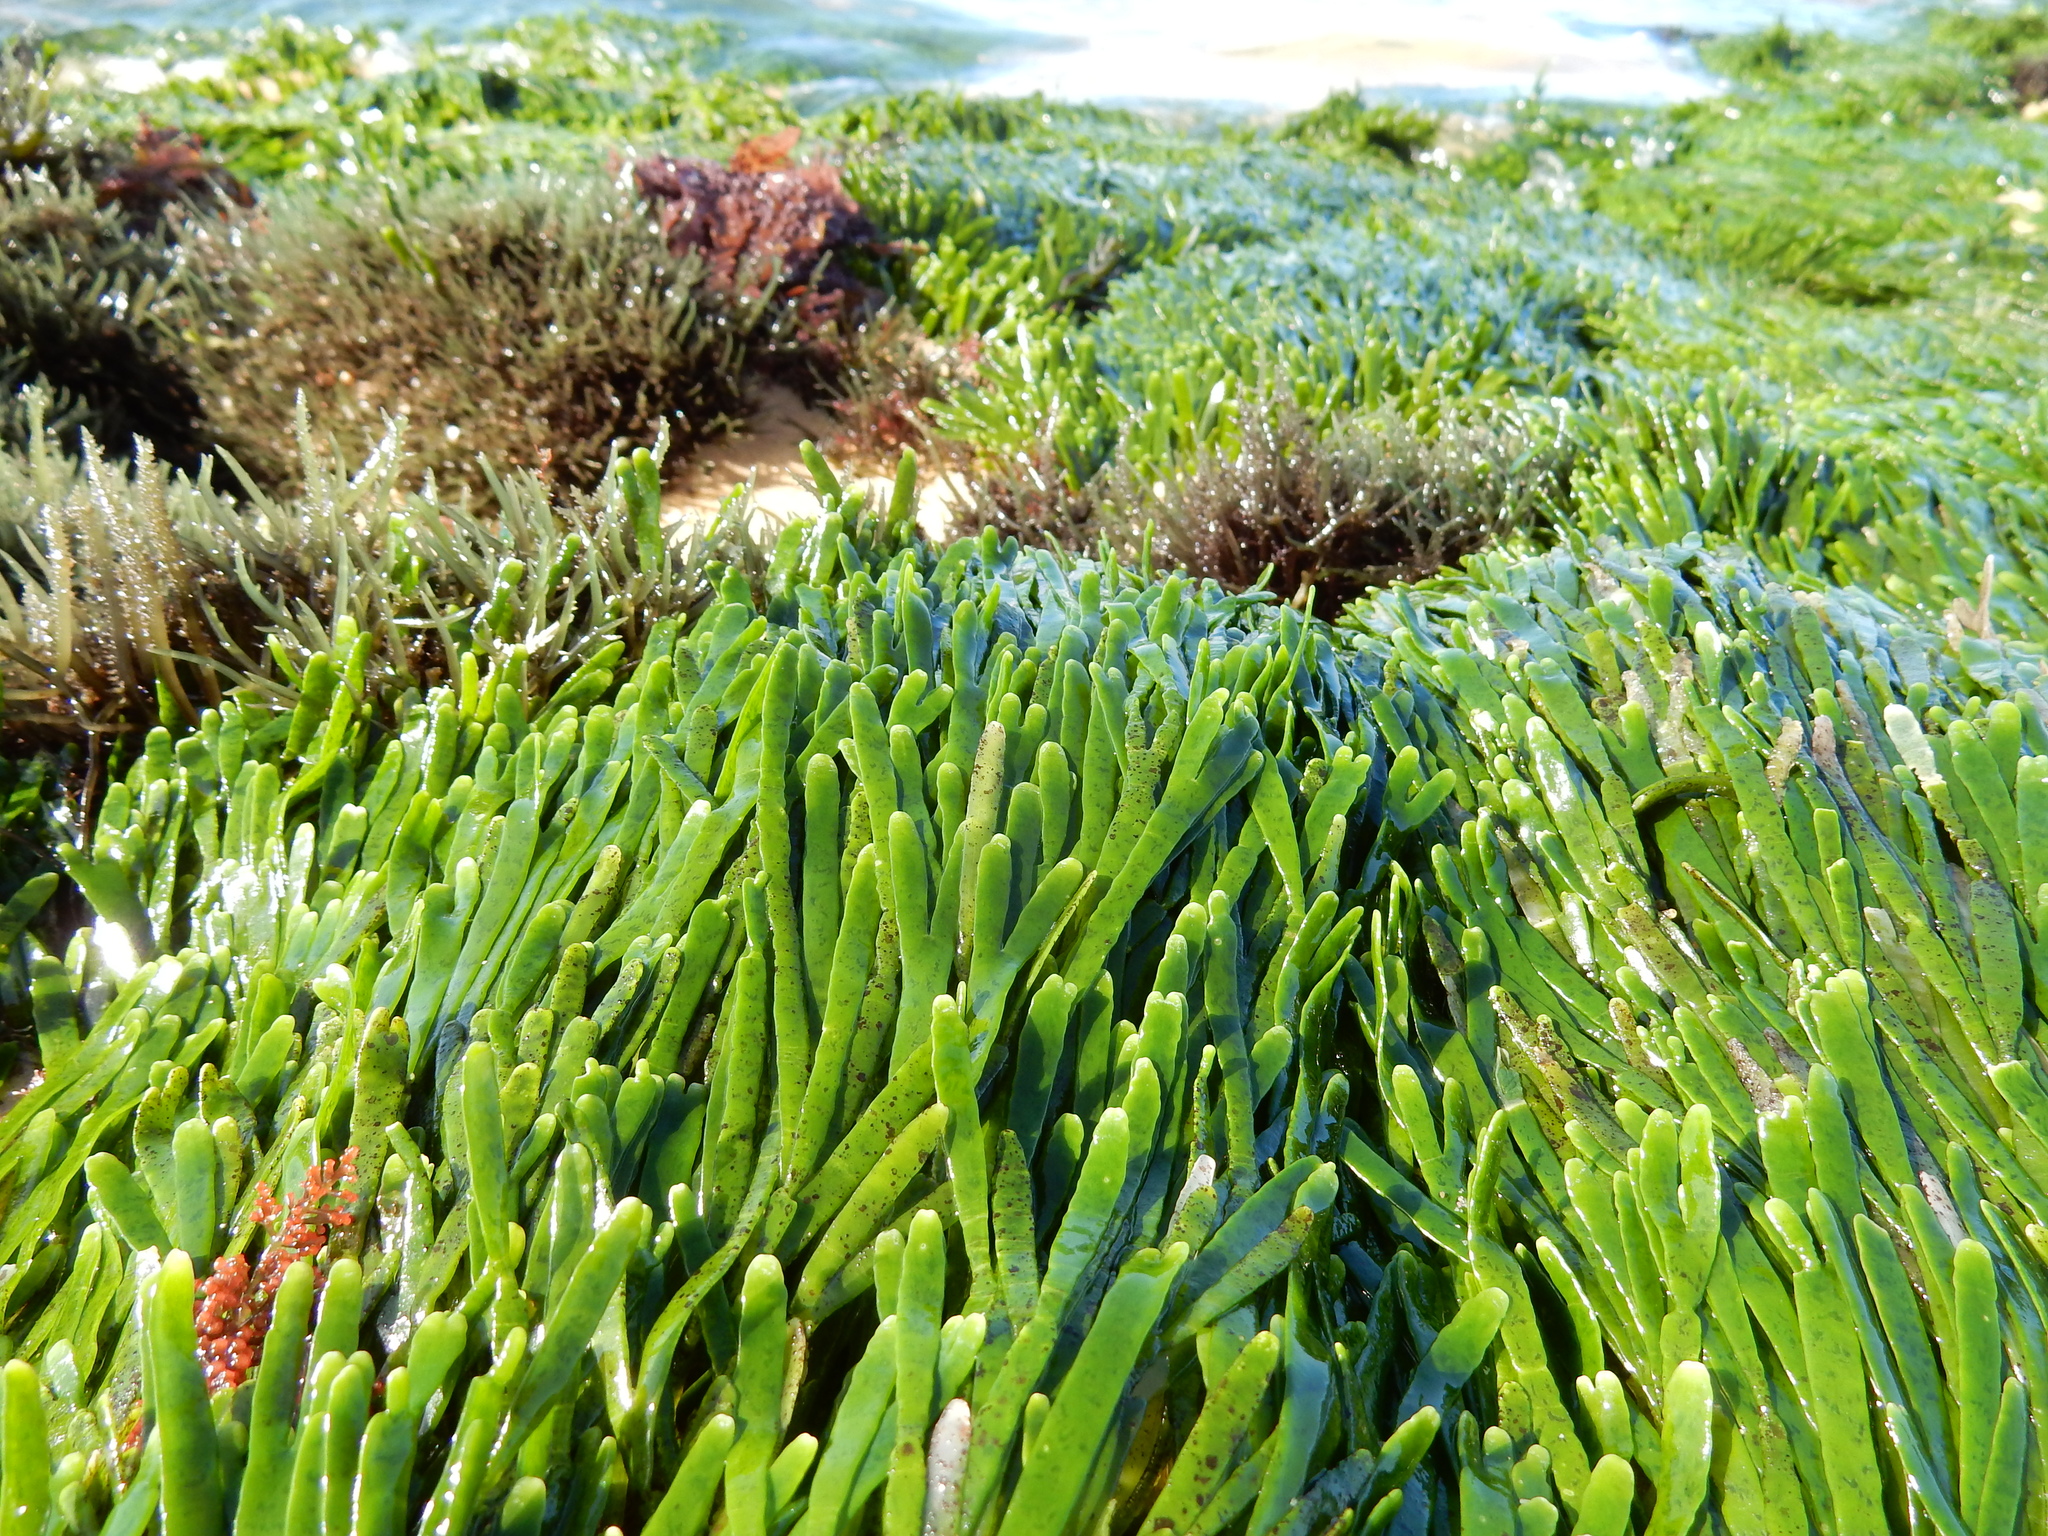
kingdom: Plantae
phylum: Chlorophyta
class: Ulvophyceae
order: Bryopsidales
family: Caulerpaceae
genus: Caulerpa
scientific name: Caulerpa filiformis
